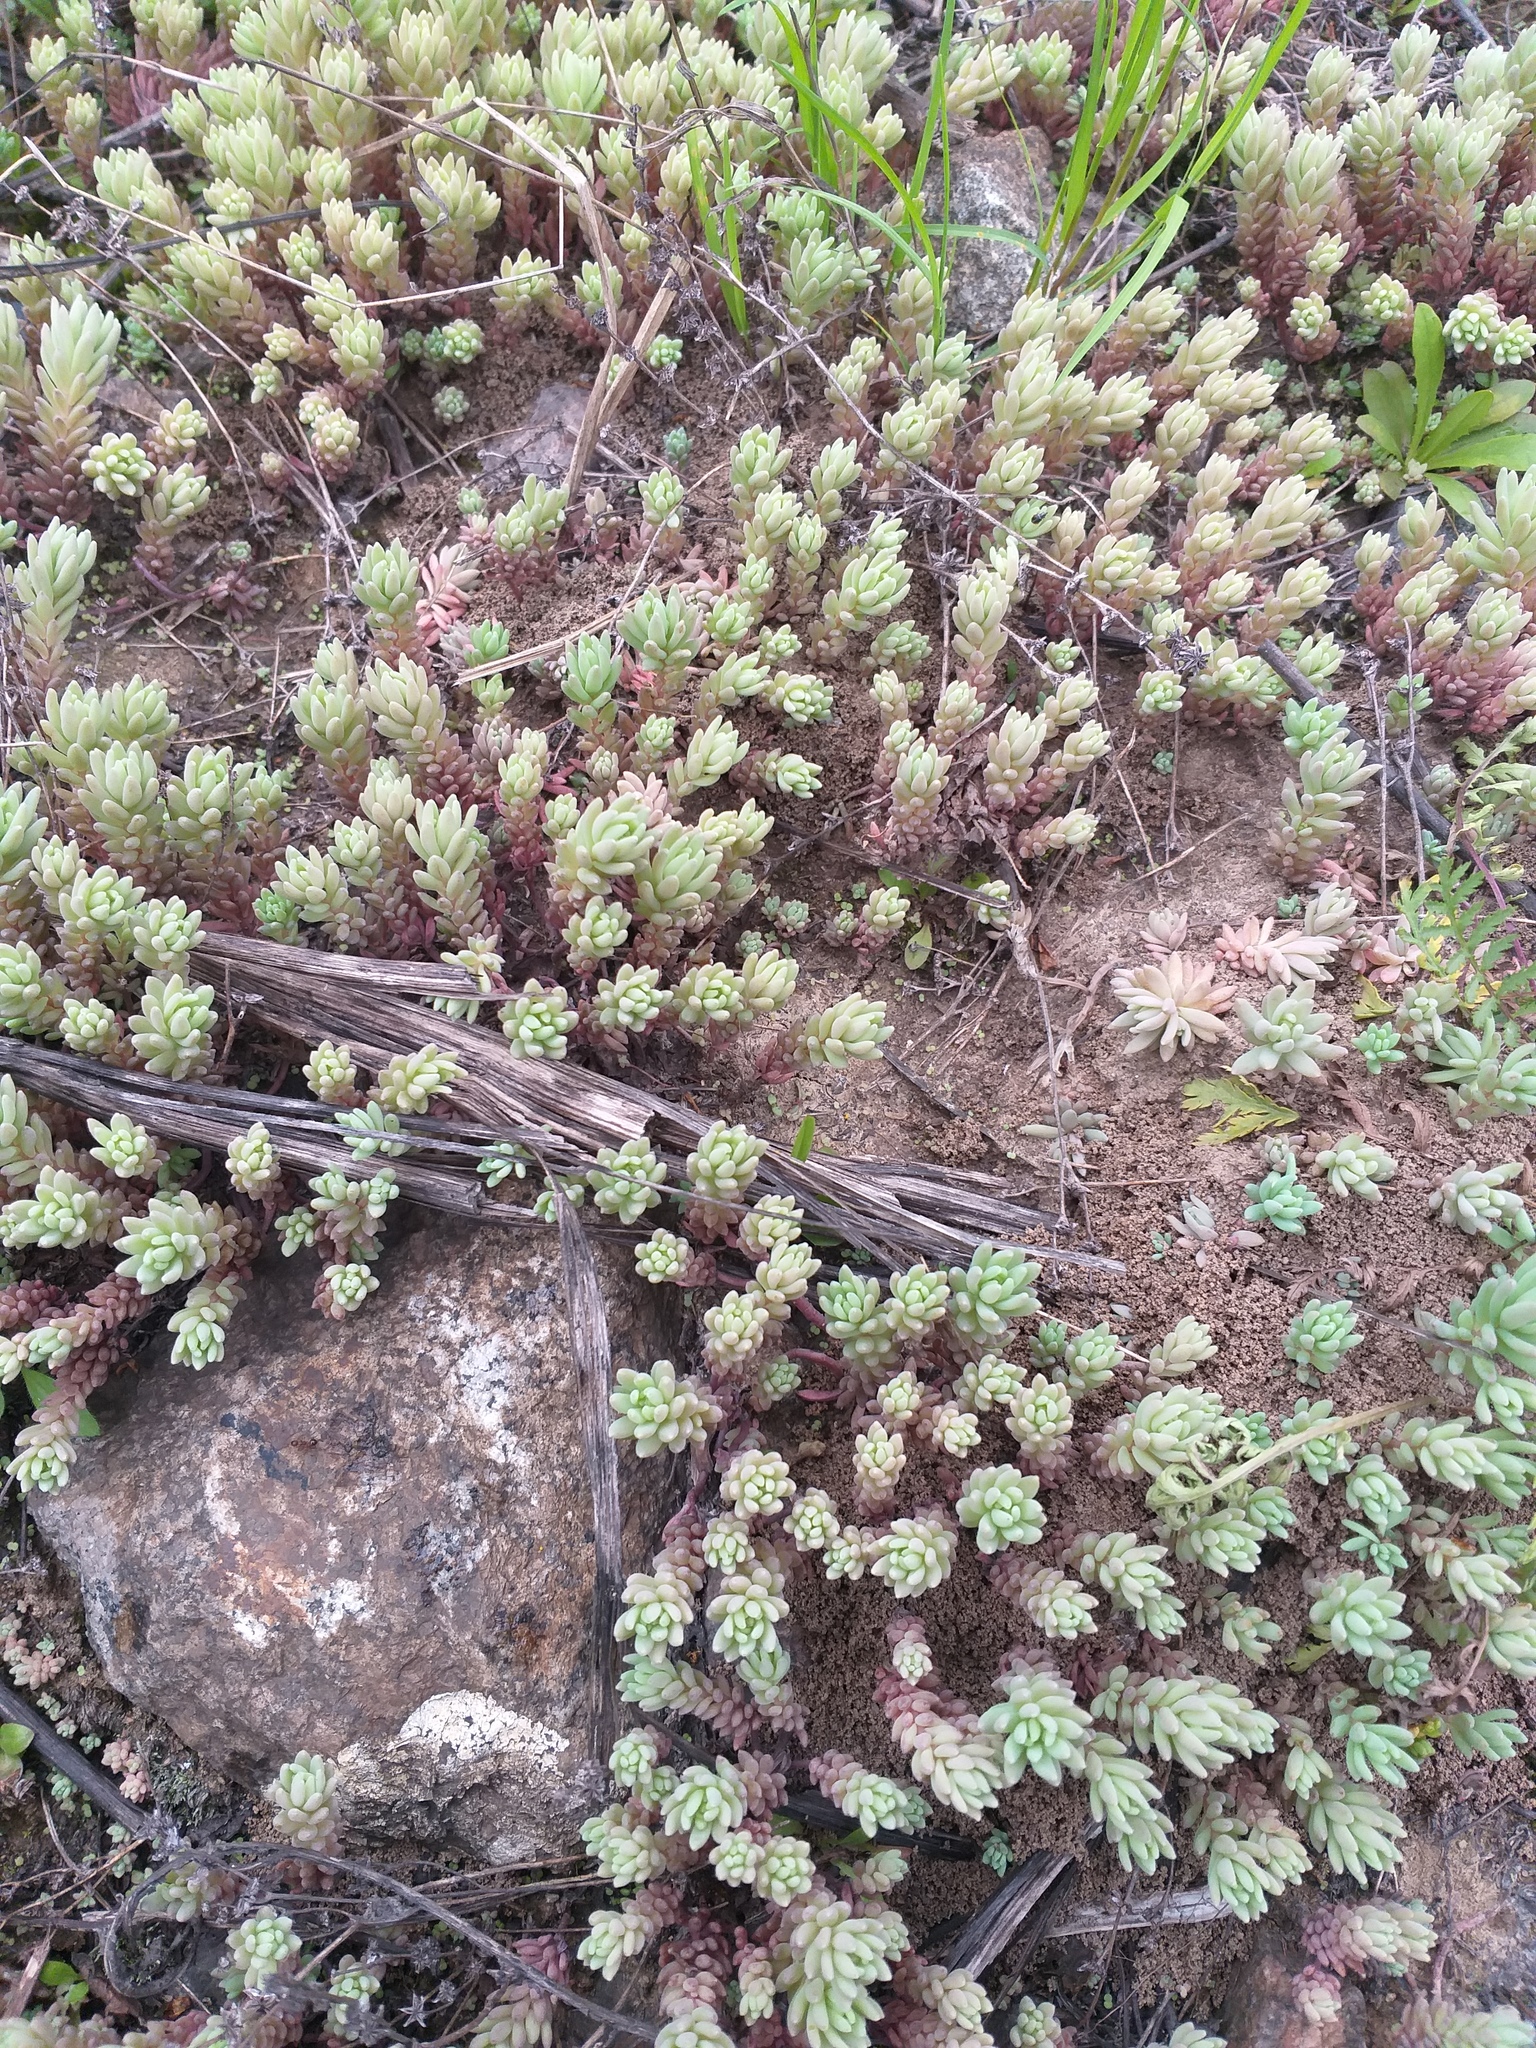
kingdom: Plantae
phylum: Tracheophyta
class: Magnoliopsida
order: Saxifragales
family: Crassulaceae
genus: Sedum
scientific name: Sedum hispanicum
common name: Spanish stonecrop
